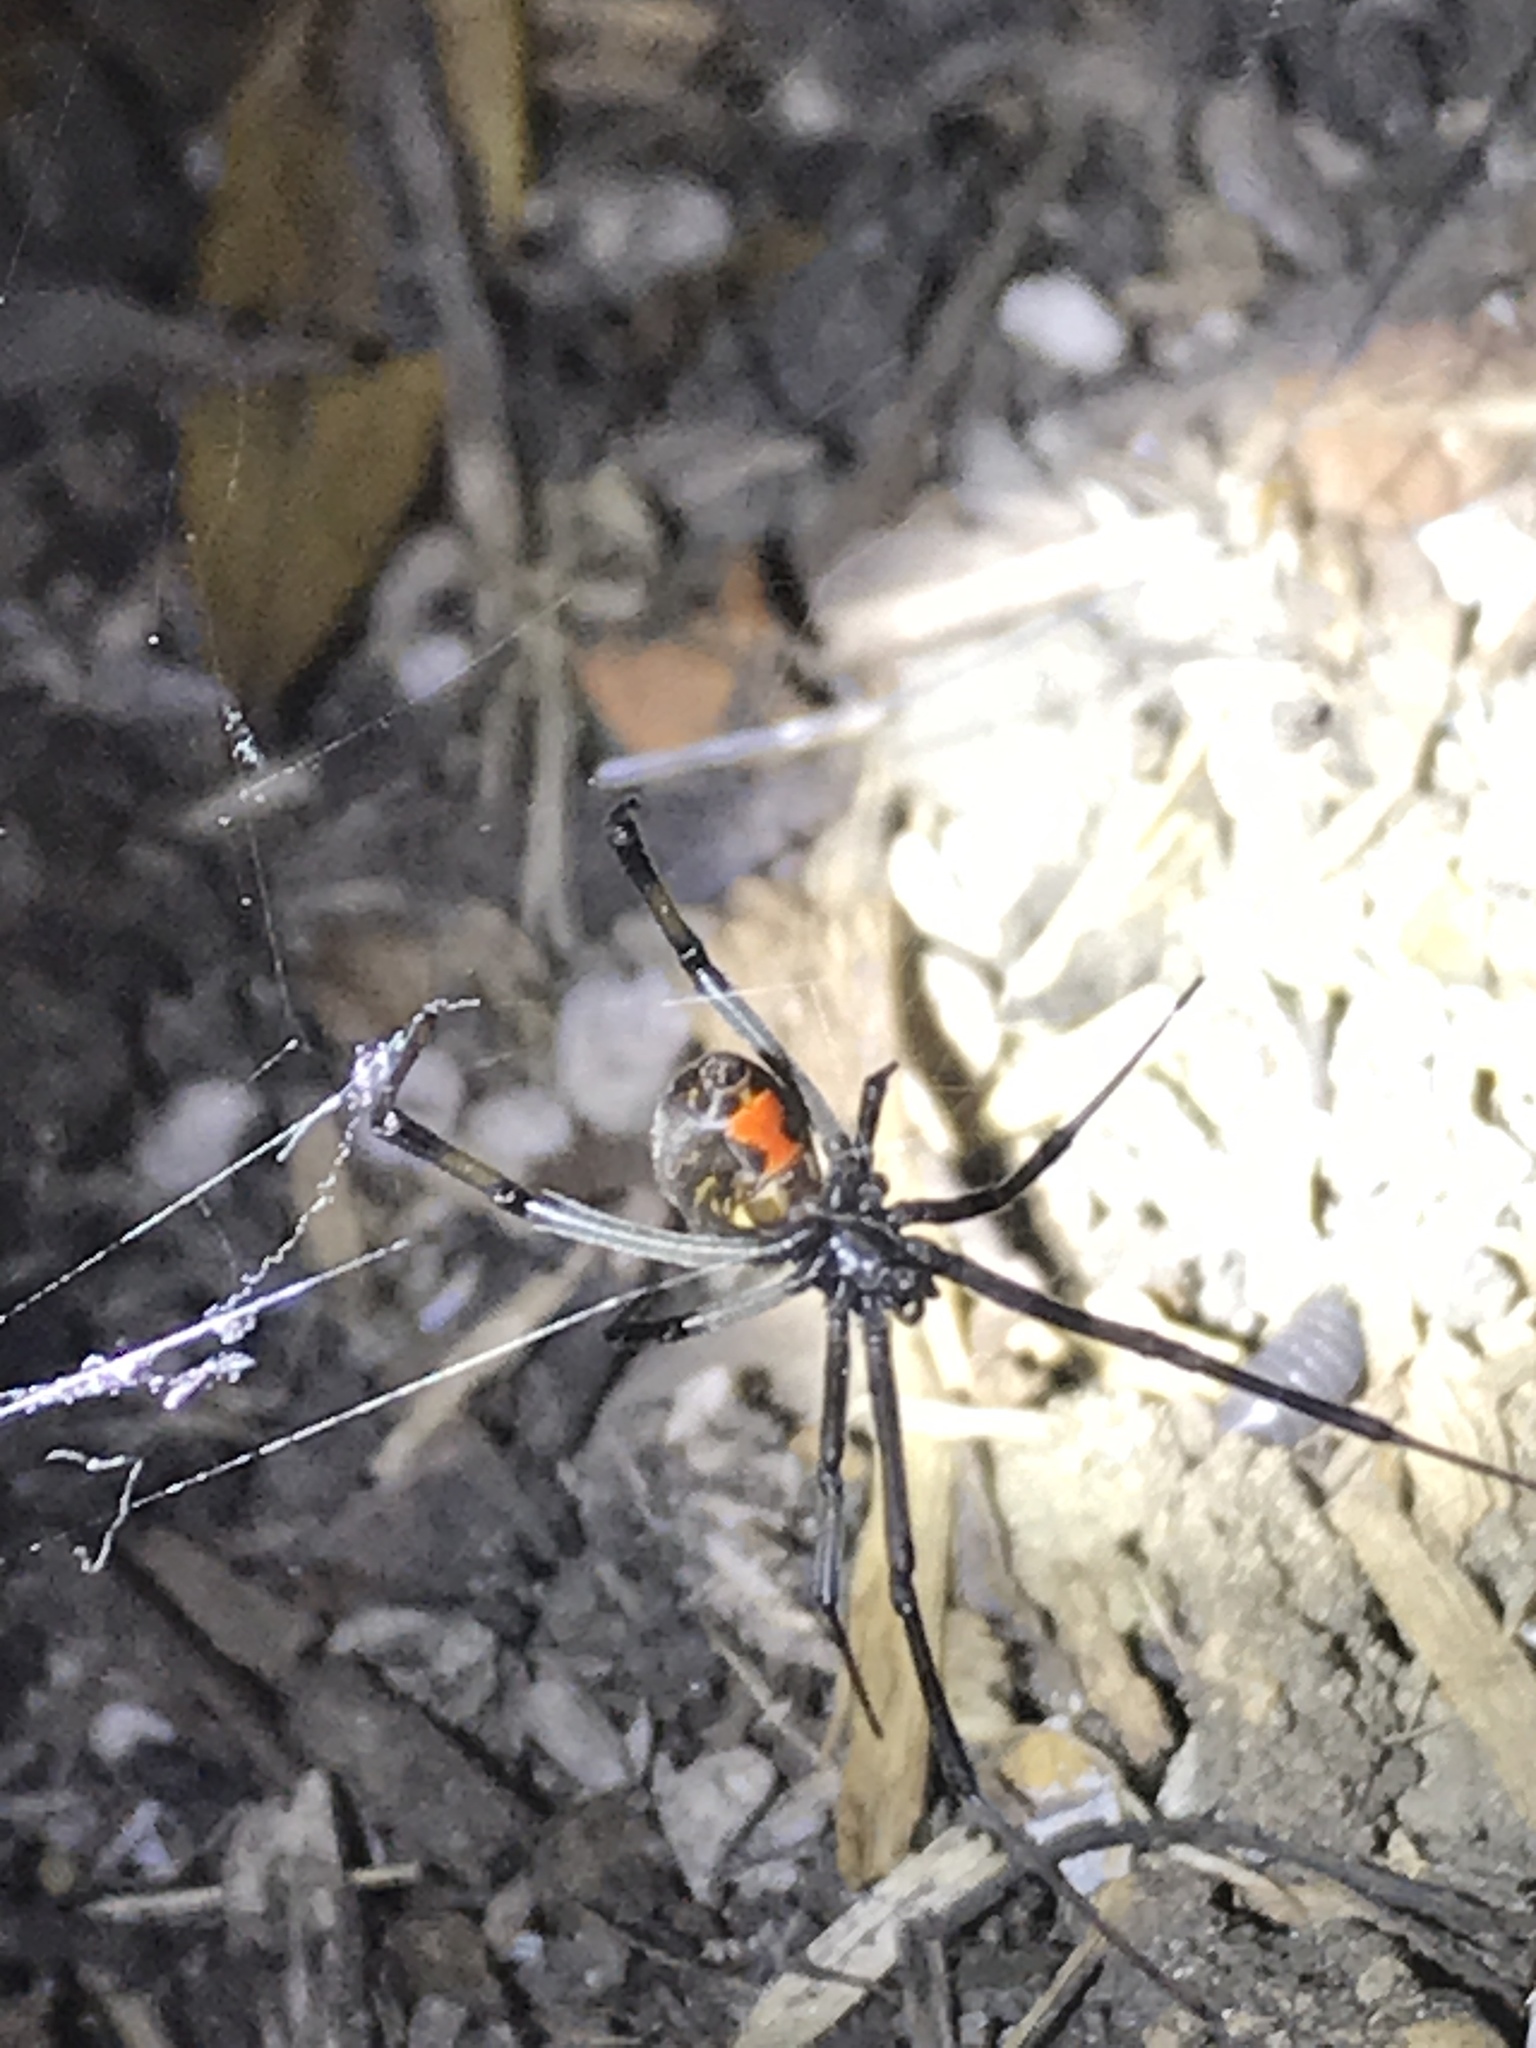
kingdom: Animalia
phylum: Arthropoda
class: Arachnida
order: Araneae
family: Theridiidae
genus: Latrodectus
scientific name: Latrodectus geometricus
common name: Brown widow spider
